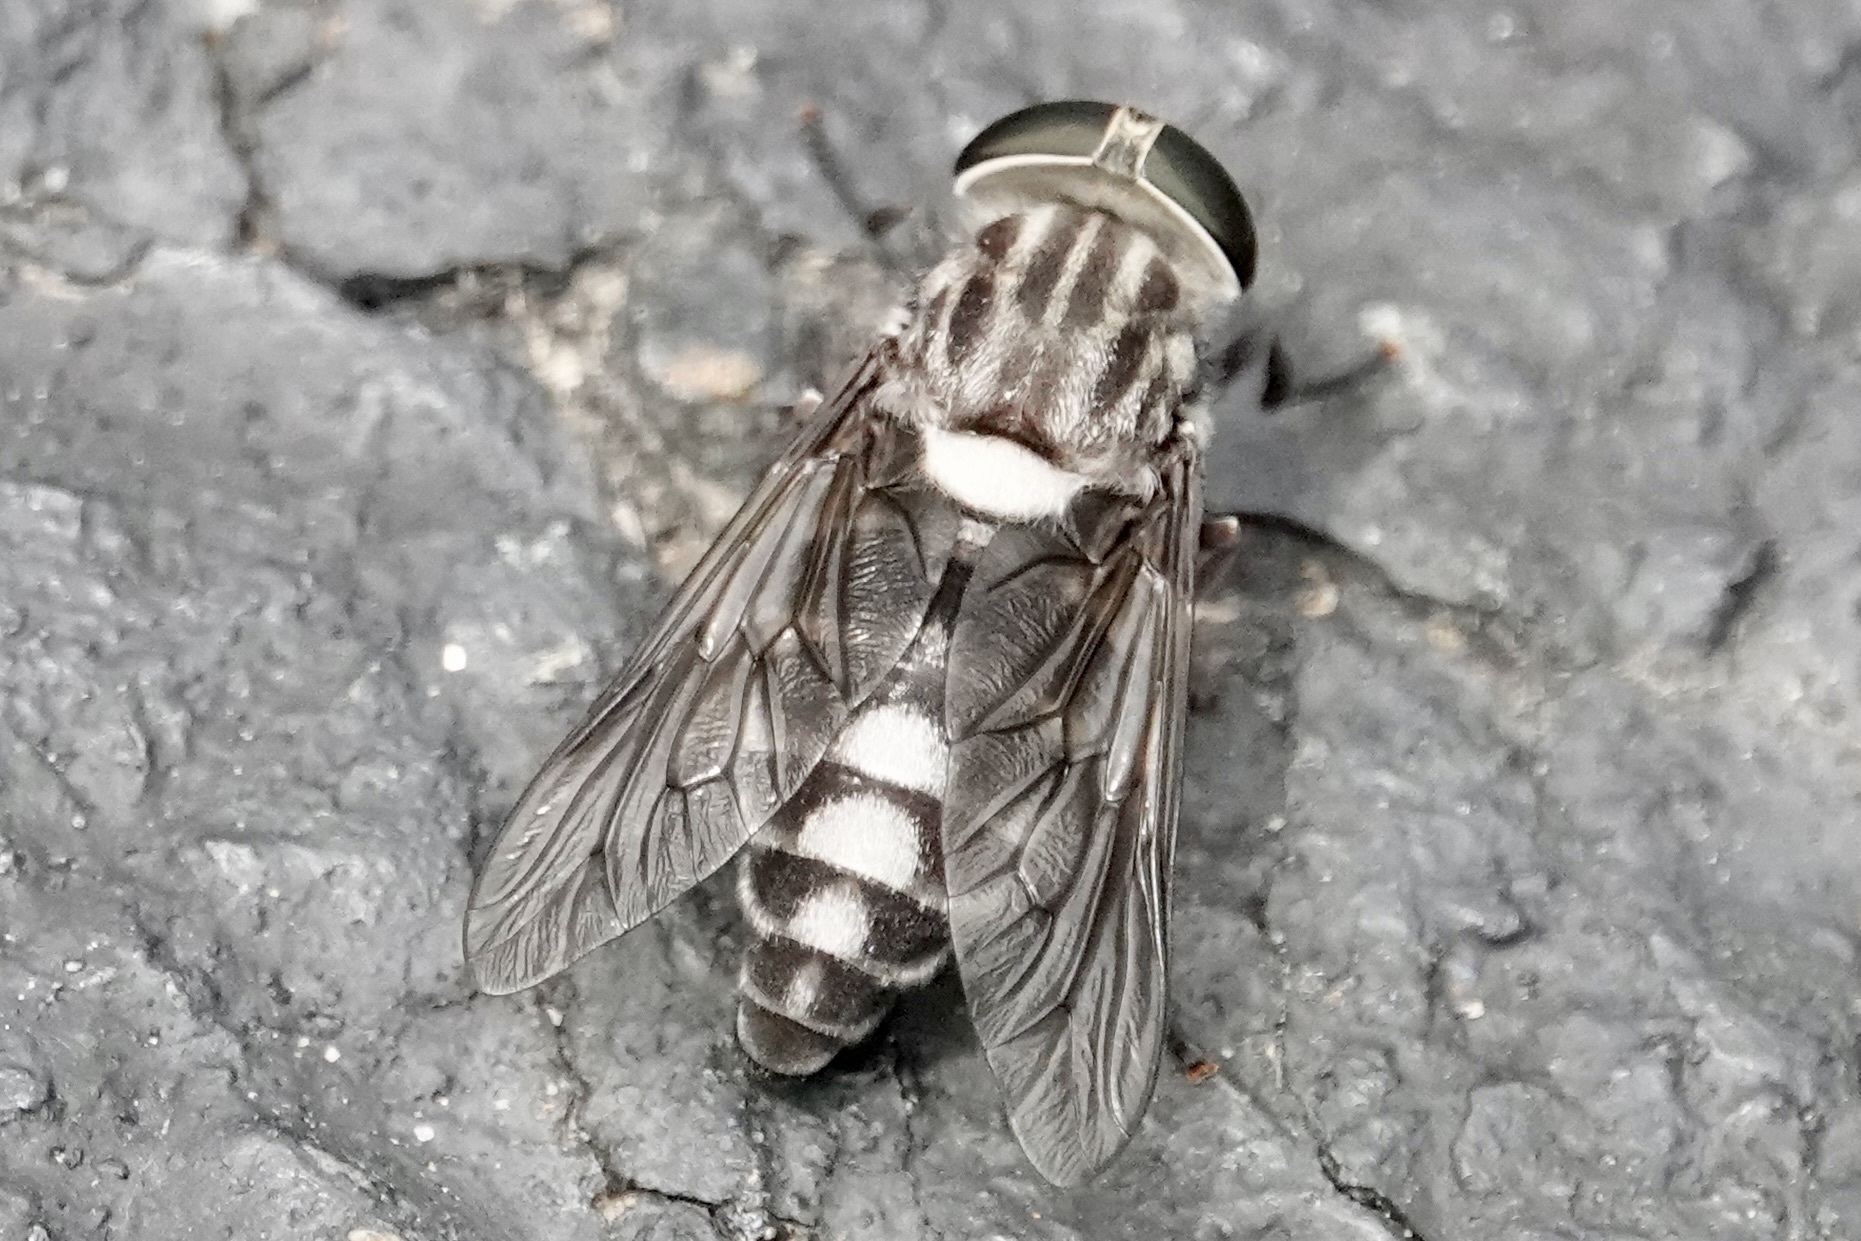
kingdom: Animalia
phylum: Arthropoda
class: Insecta
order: Diptera
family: Tabanidae
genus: Tabanus
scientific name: Tabanus trimaculatus
